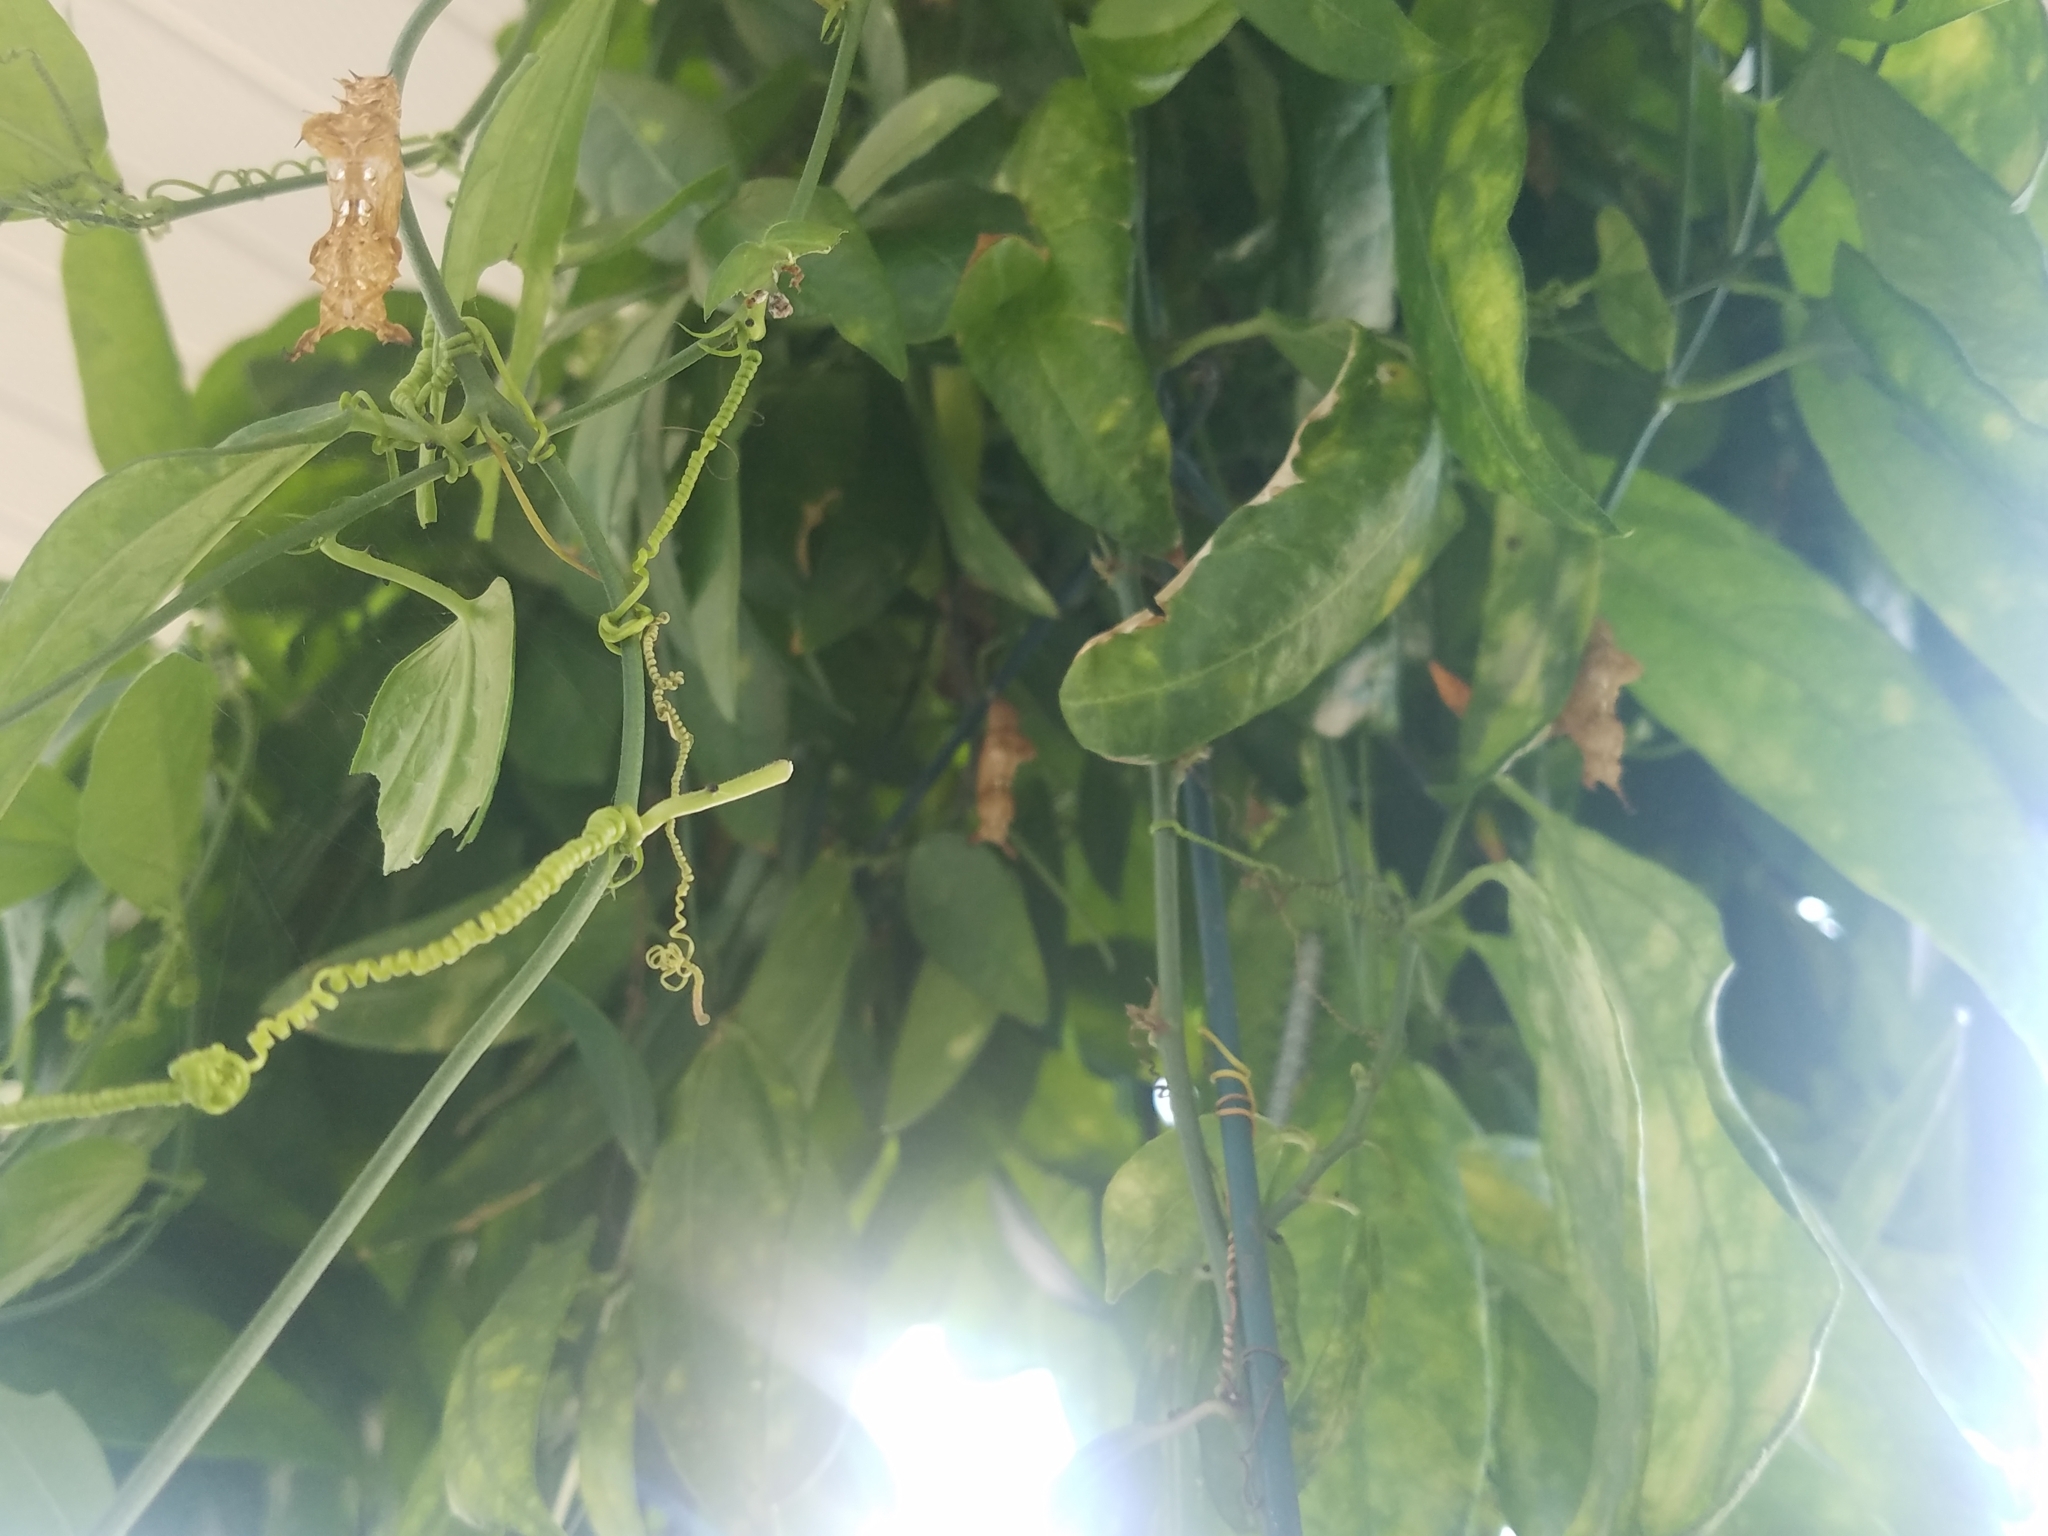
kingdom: Animalia
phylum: Arthropoda
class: Insecta
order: Lepidoptera
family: Nymphalidae
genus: Heliconius
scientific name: Heliconius charithonia
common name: Zebra long wing
